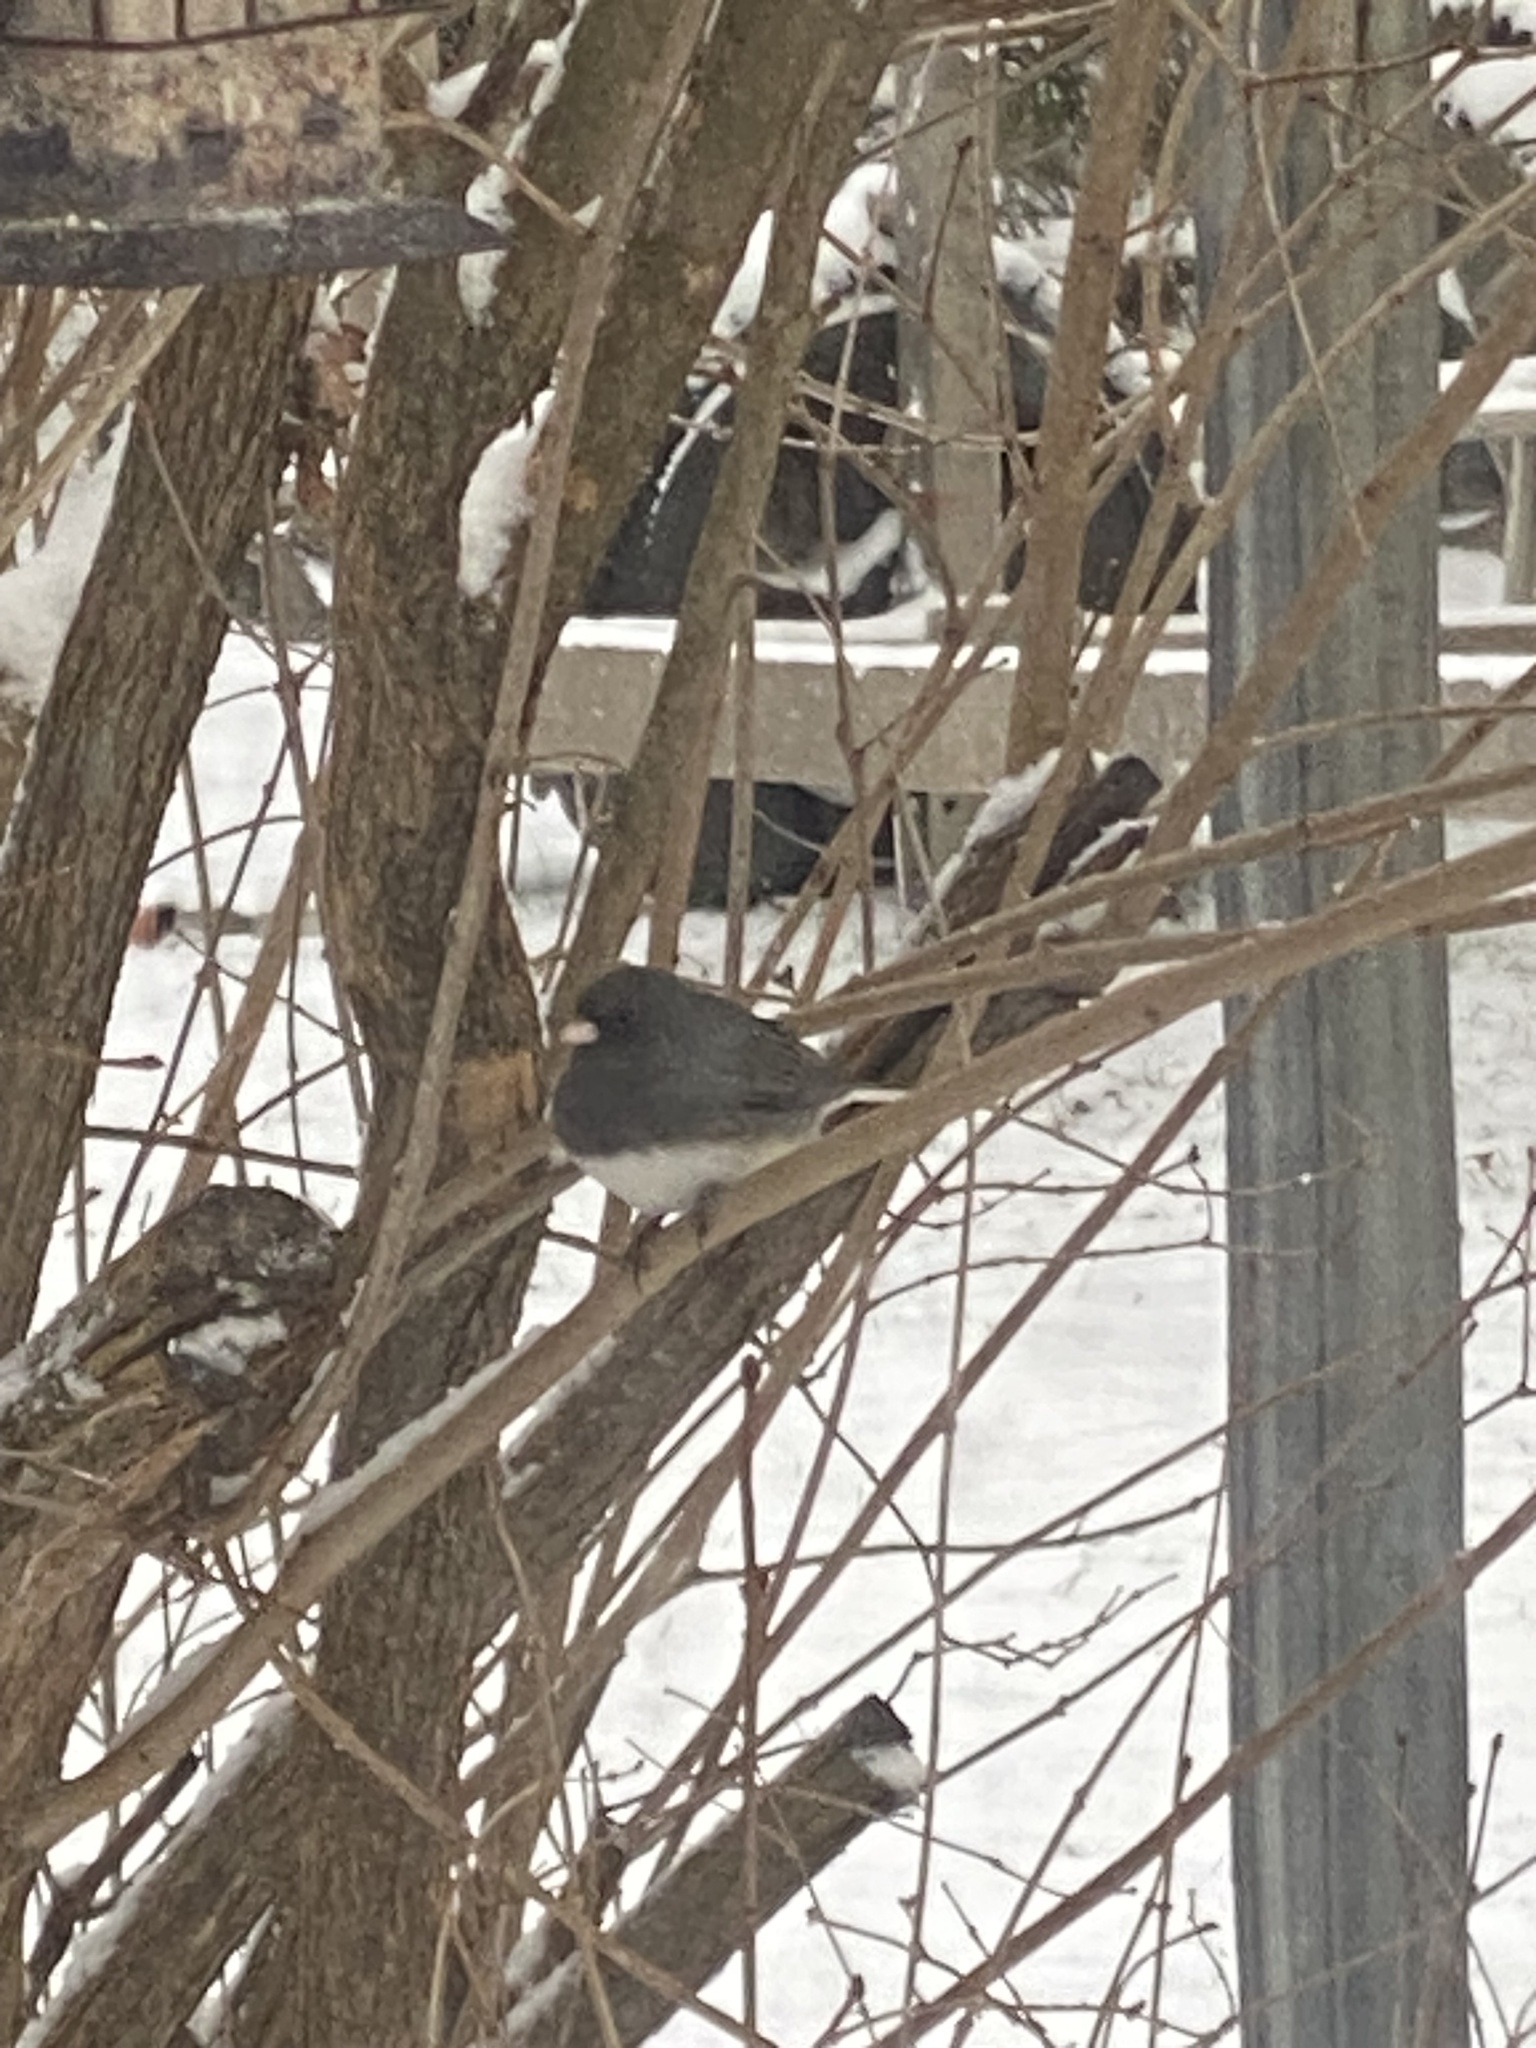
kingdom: Animalia
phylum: Chordata
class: Aves
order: Passeriformes
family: Passerellidae
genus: Junco
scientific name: Junco hyemalis
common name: Dark-eyed junco
